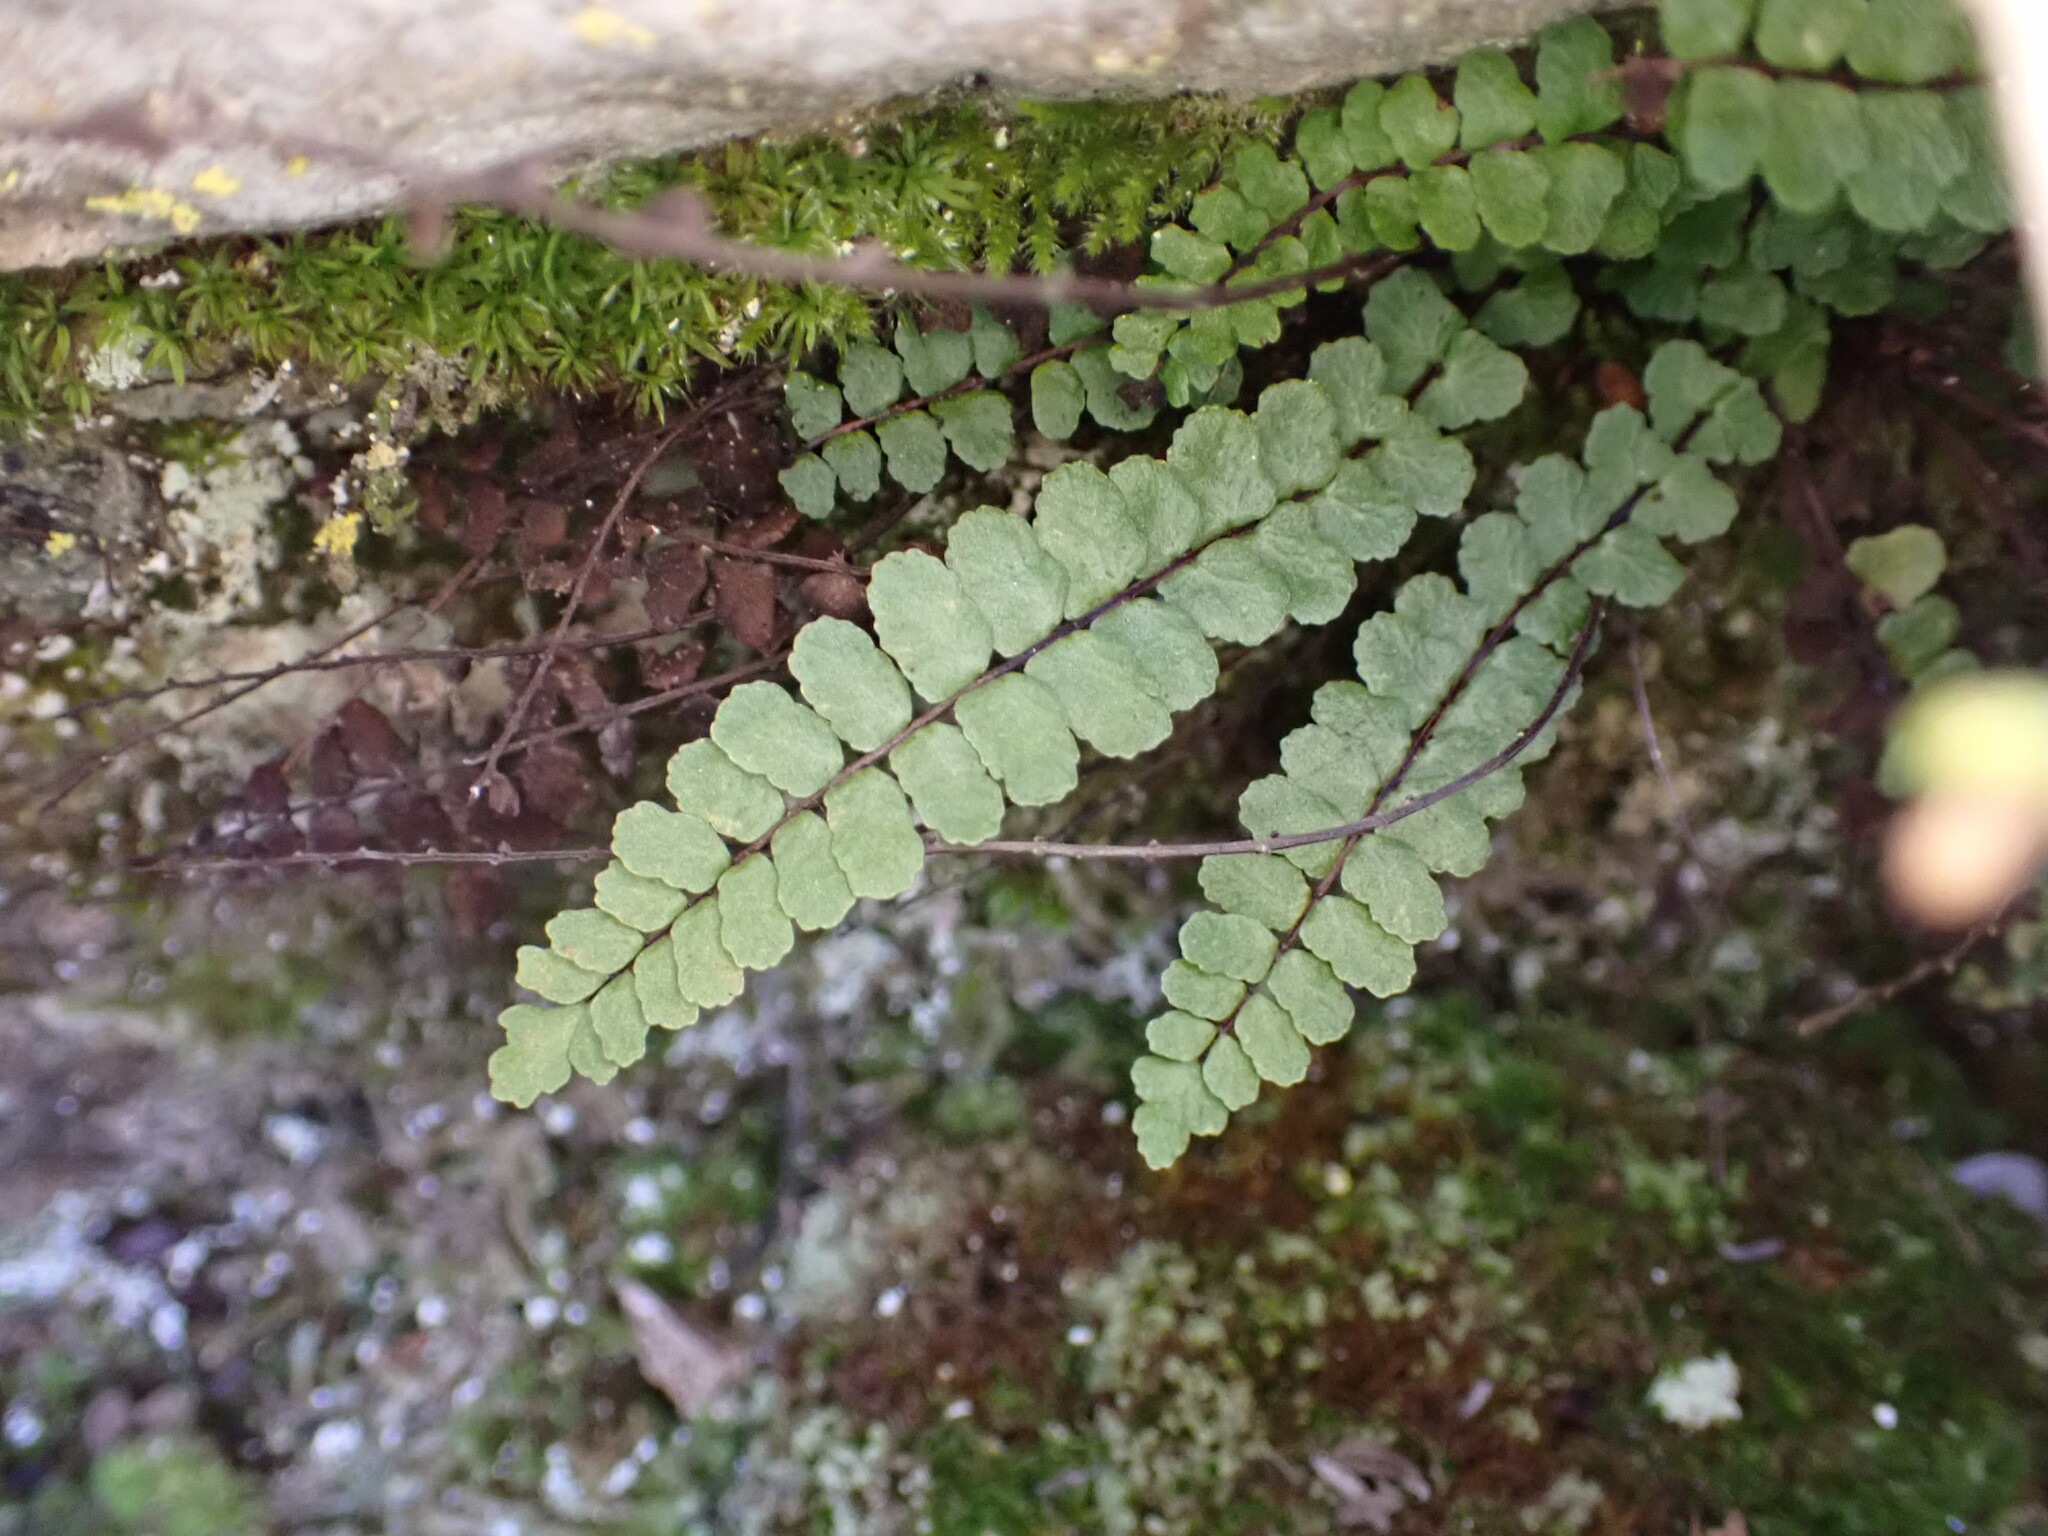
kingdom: Plantae
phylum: Tracheophyta
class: Polypodiopsida
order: Polypodiales
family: Aspleniaceae
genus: Asplenium
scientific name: Asplenium trichomanes
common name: Maidenhair spleenwort
